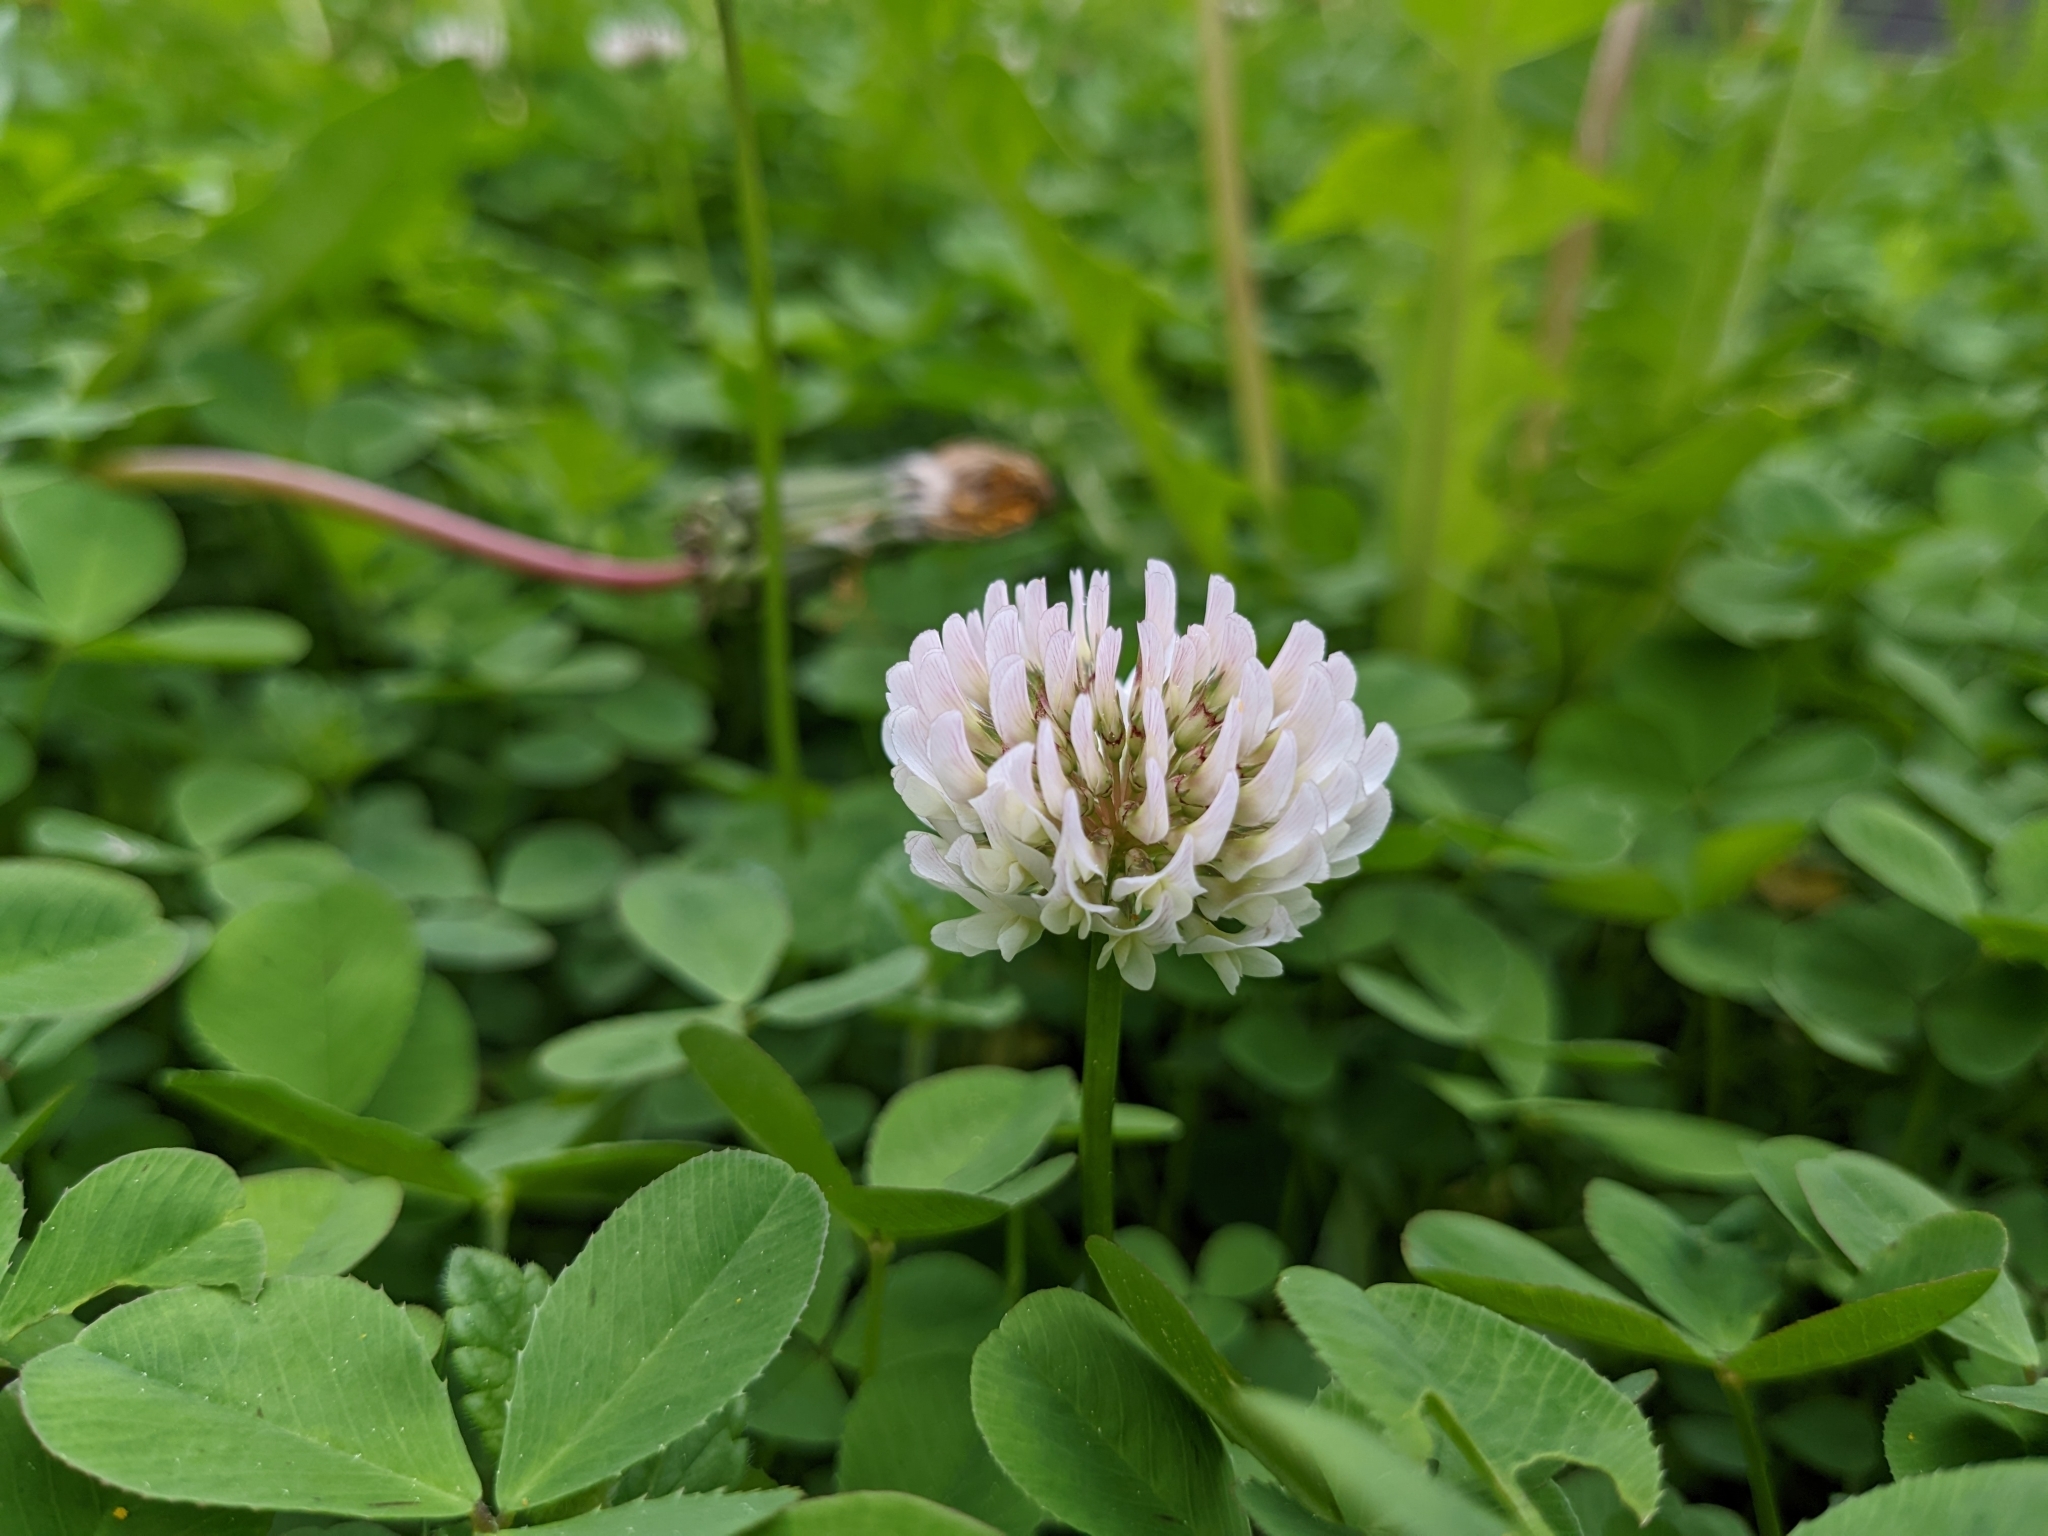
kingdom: Plantae
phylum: Tracheophyta
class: Magnoliopsida
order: Fabales
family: Fabaceae
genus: Trifolium
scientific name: Trifolium repens
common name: White clover
